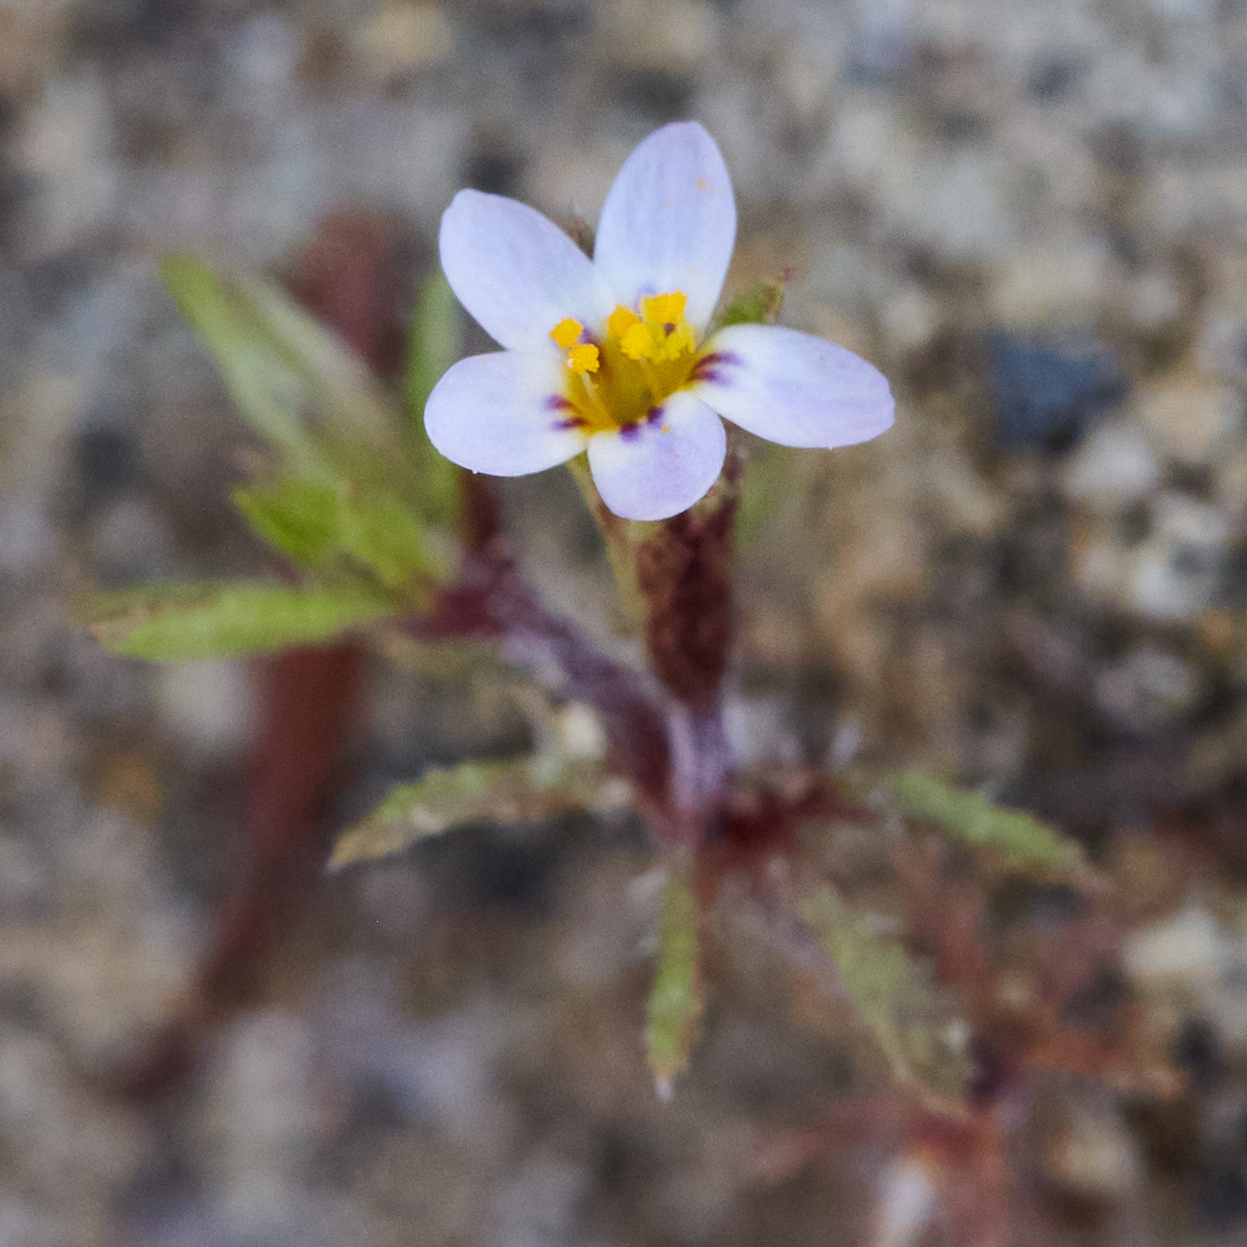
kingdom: Plantae
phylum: Tracheophyta
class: Magnoliopsida
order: Ericales
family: Polemoniaceae
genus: Leptosiphon
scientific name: Leptosiphon pygmaeus
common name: Pygmy linanthus
